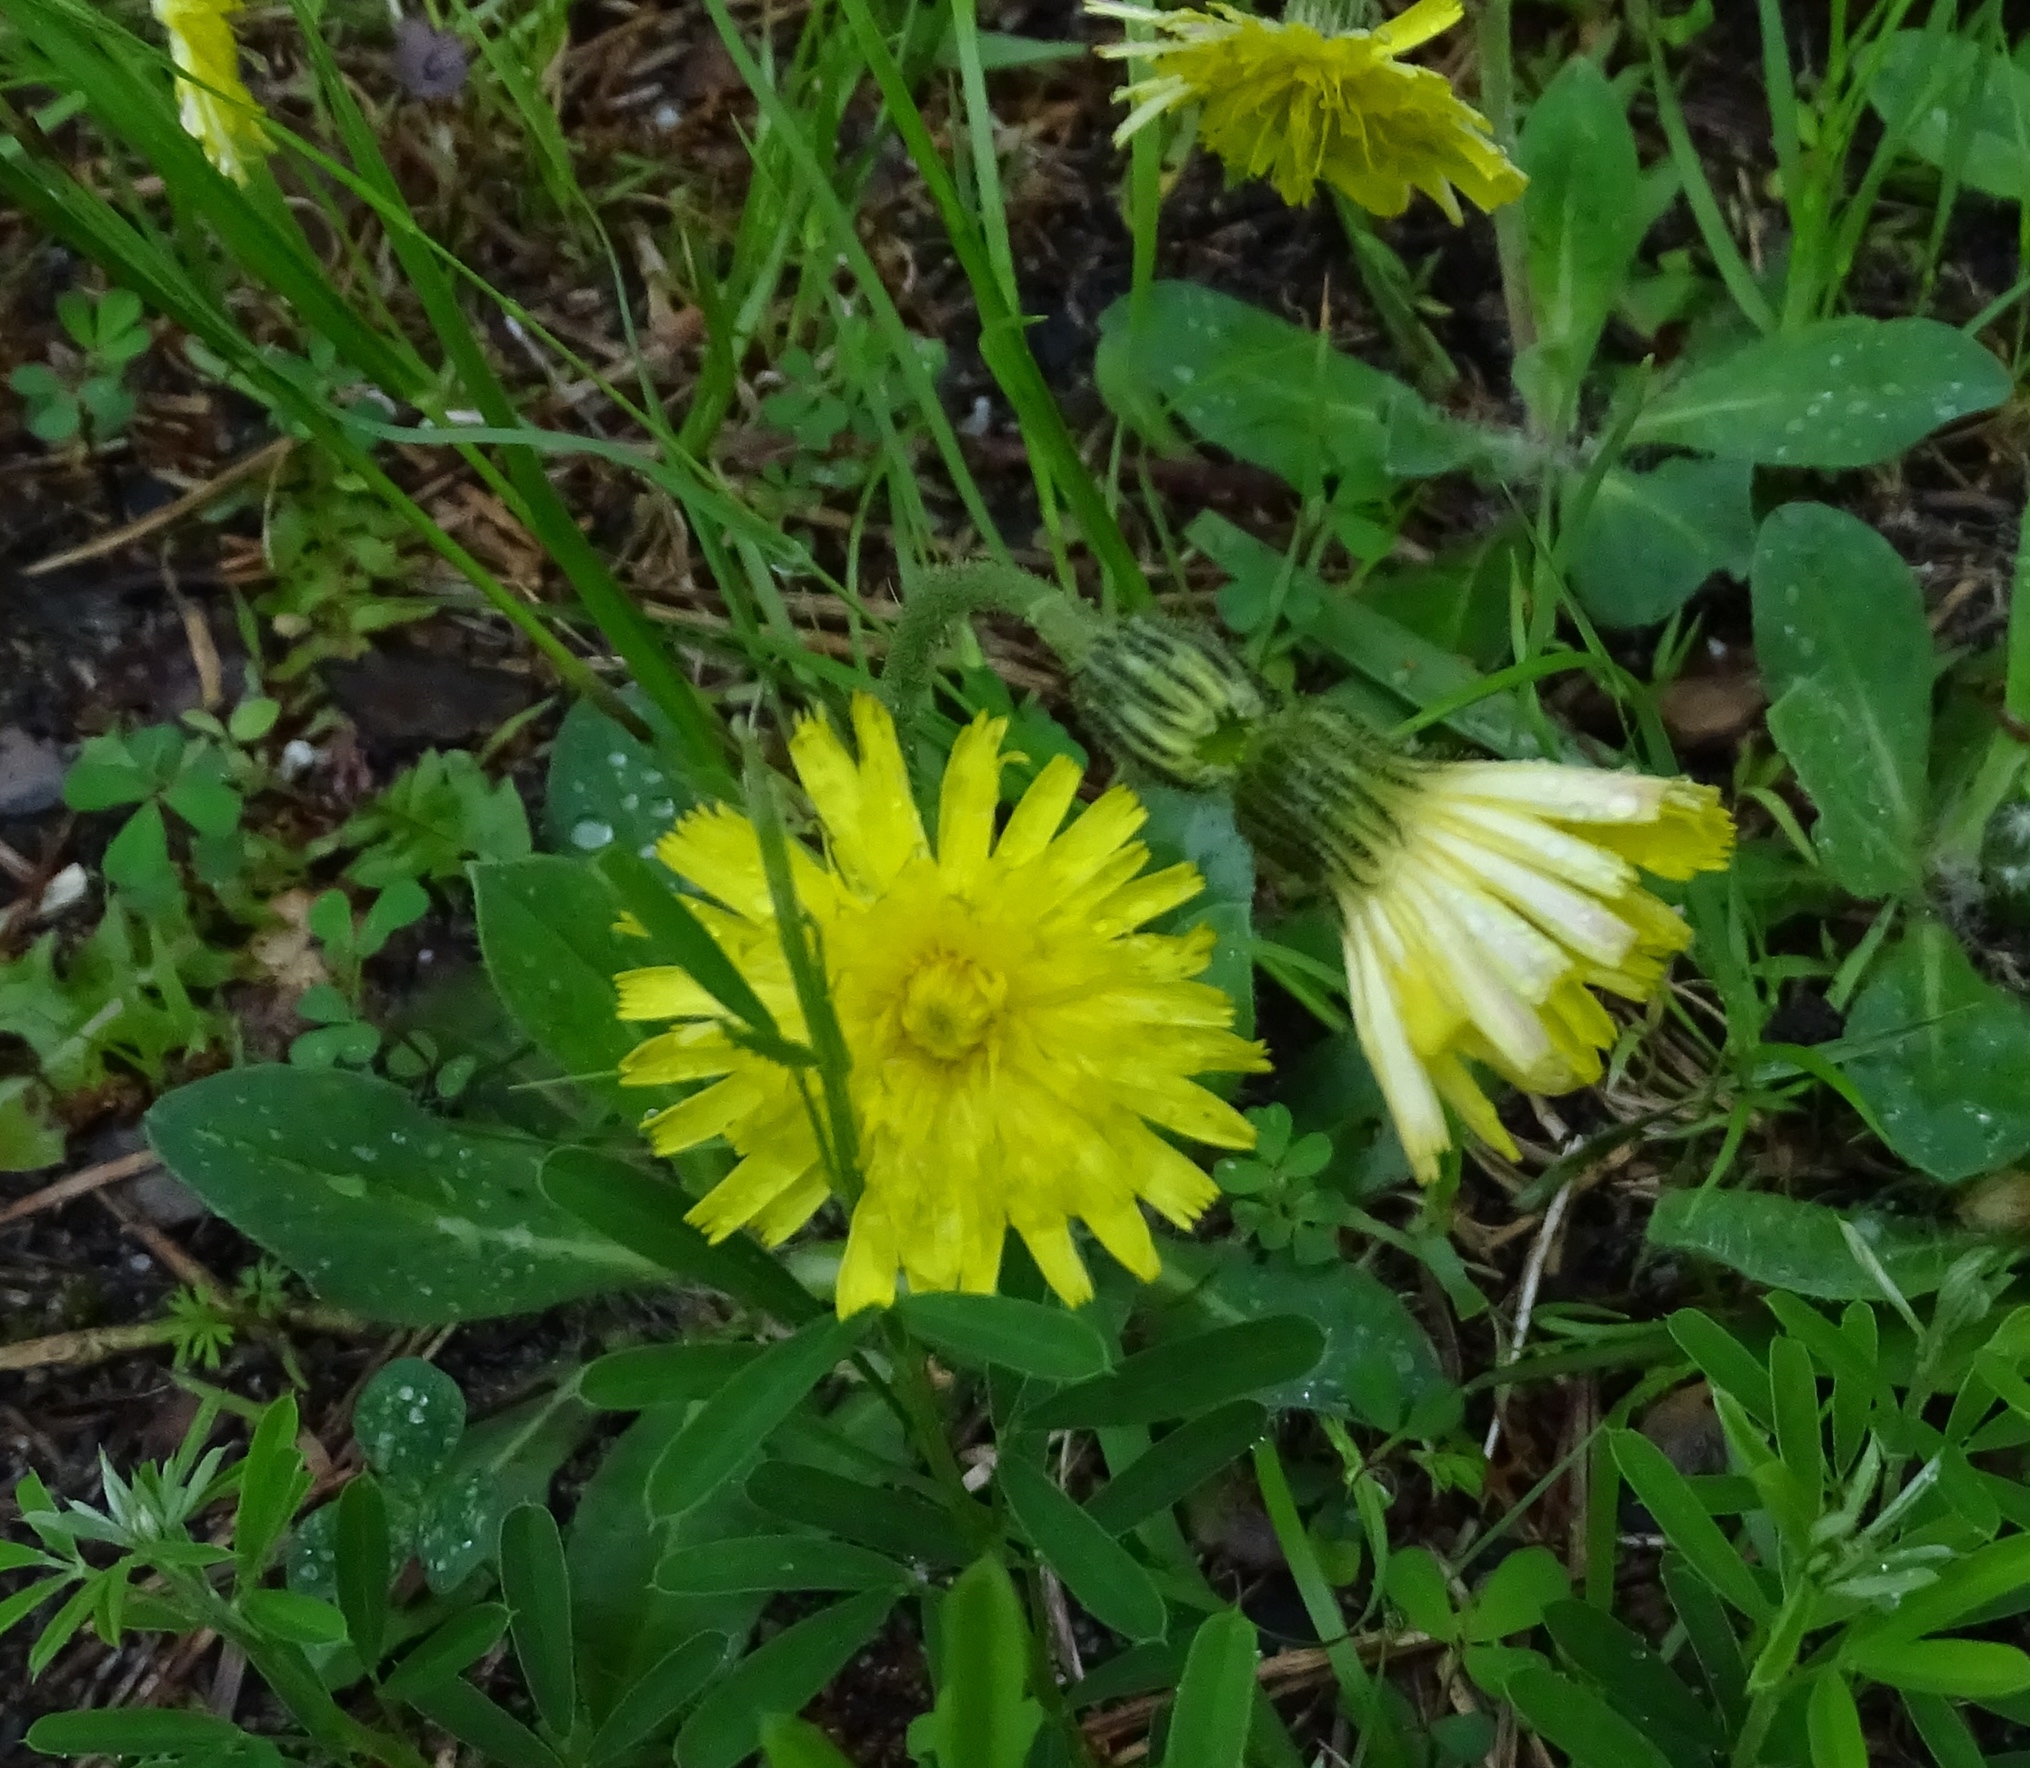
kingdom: Plantae
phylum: Tracheophyta
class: Magnoliopsida
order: Asterales
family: Asteraceae
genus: Pilosella
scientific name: Pilosella officinarum
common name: Mouse-ear hawkweed
